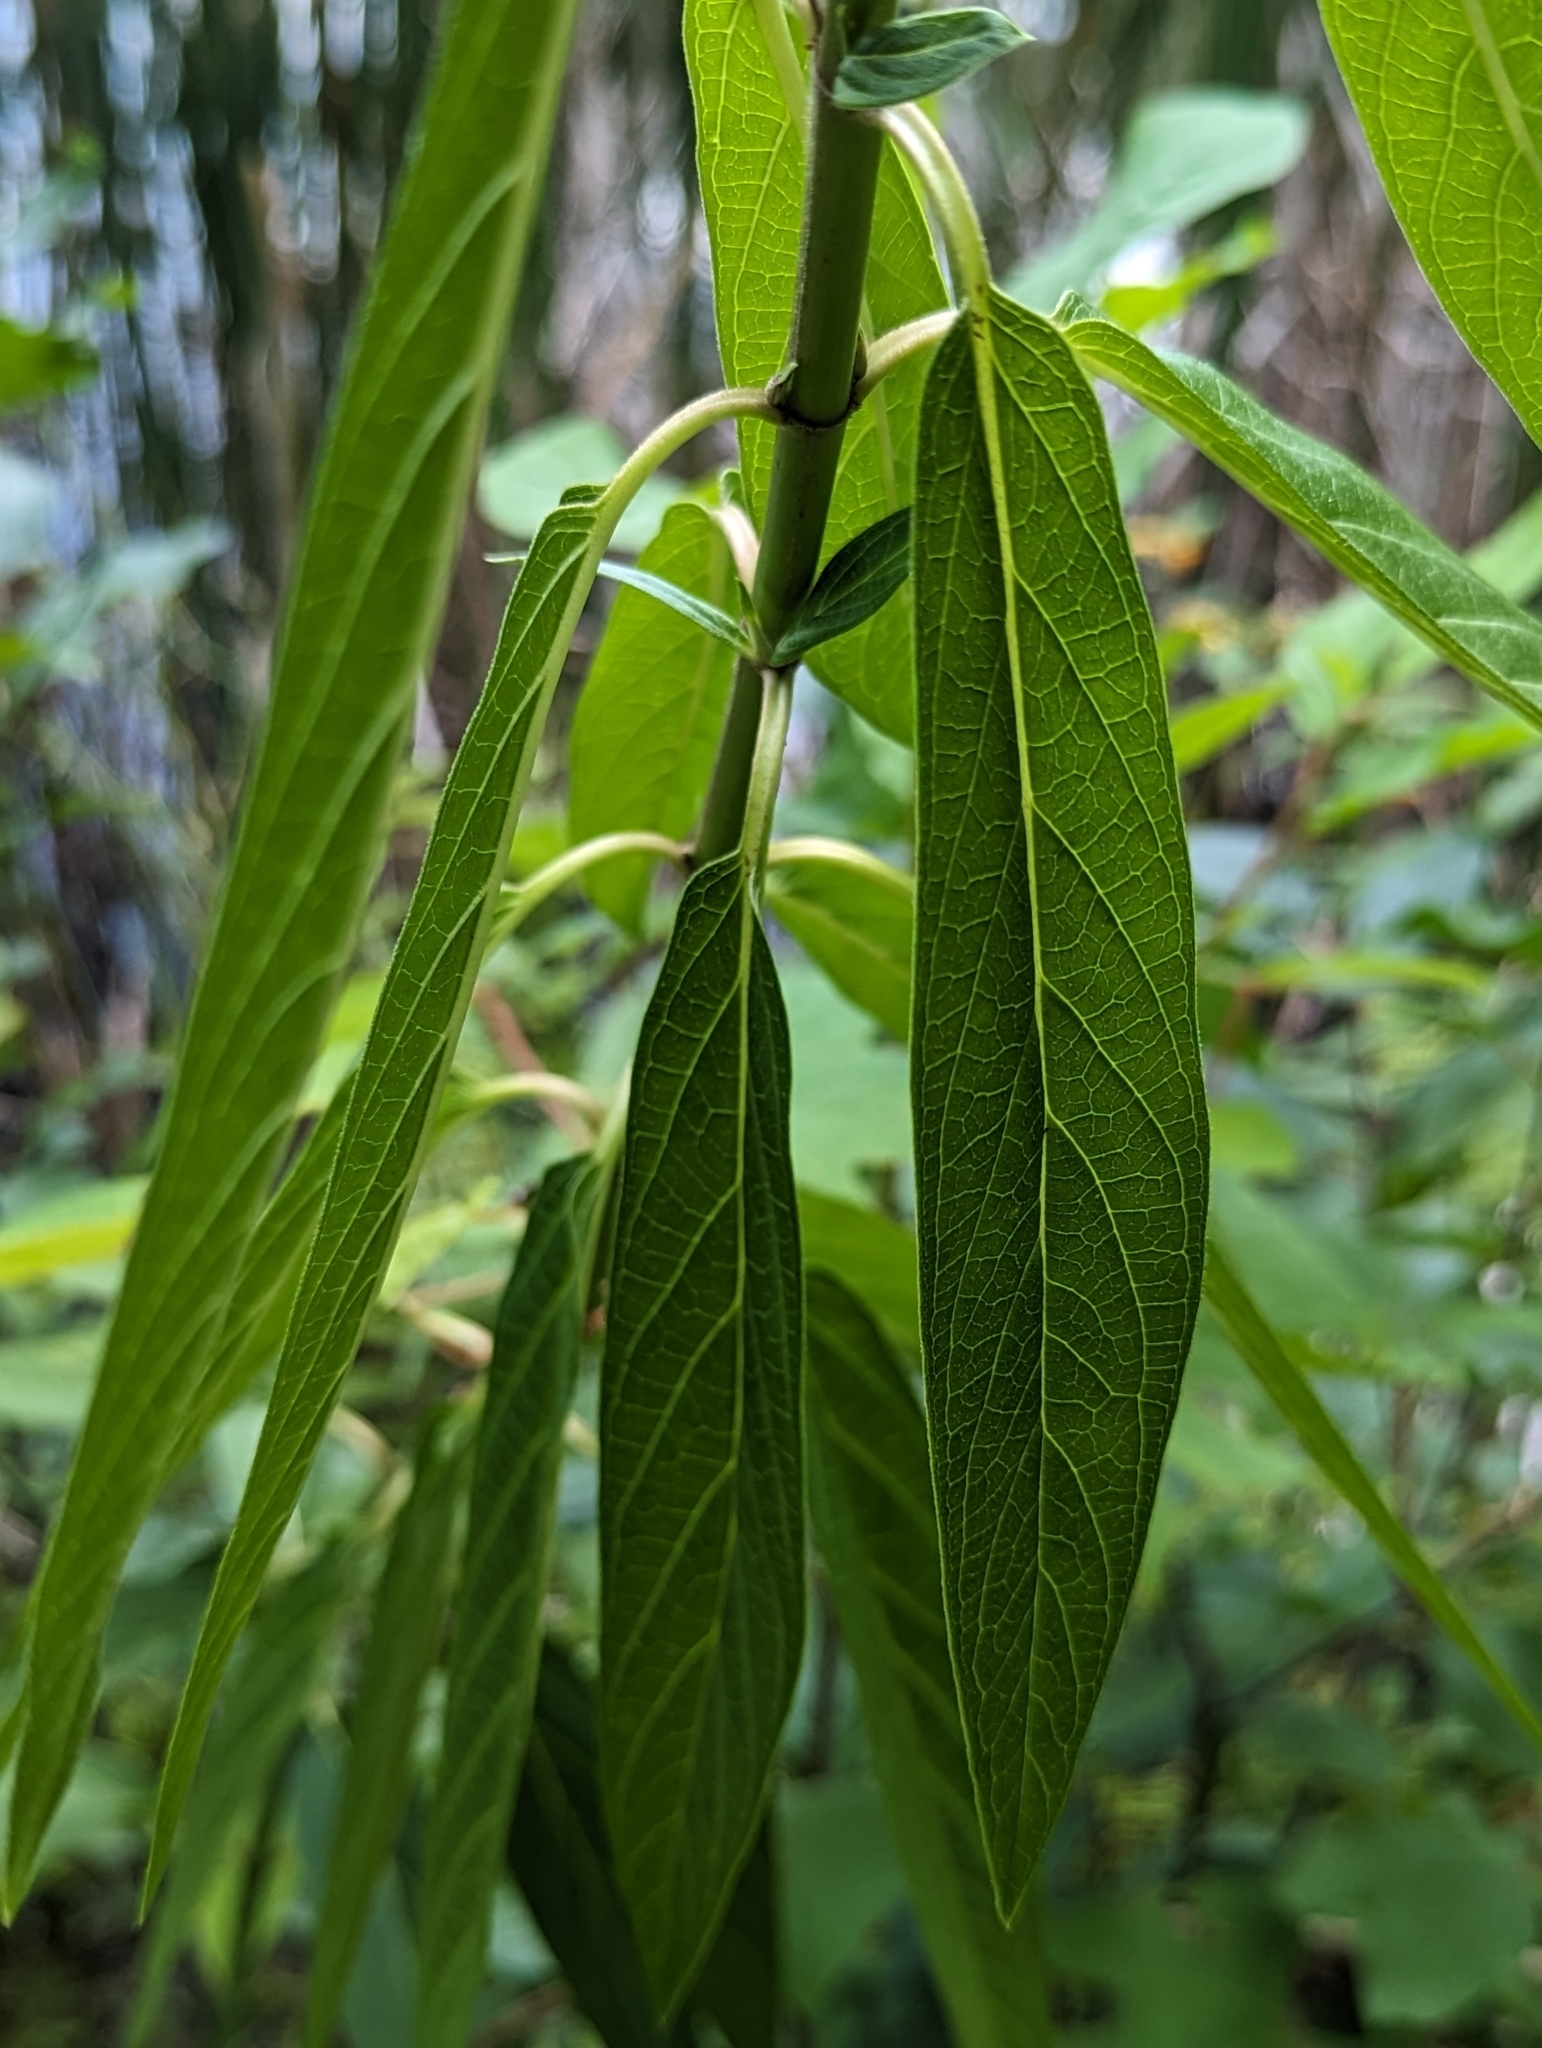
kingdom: Plantae
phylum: Tracheophyta
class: Magnoliopsida
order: Gentianales
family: Apocynaceae
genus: Asclepias
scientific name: Asclepias incarnata
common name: Swamp milkweed
